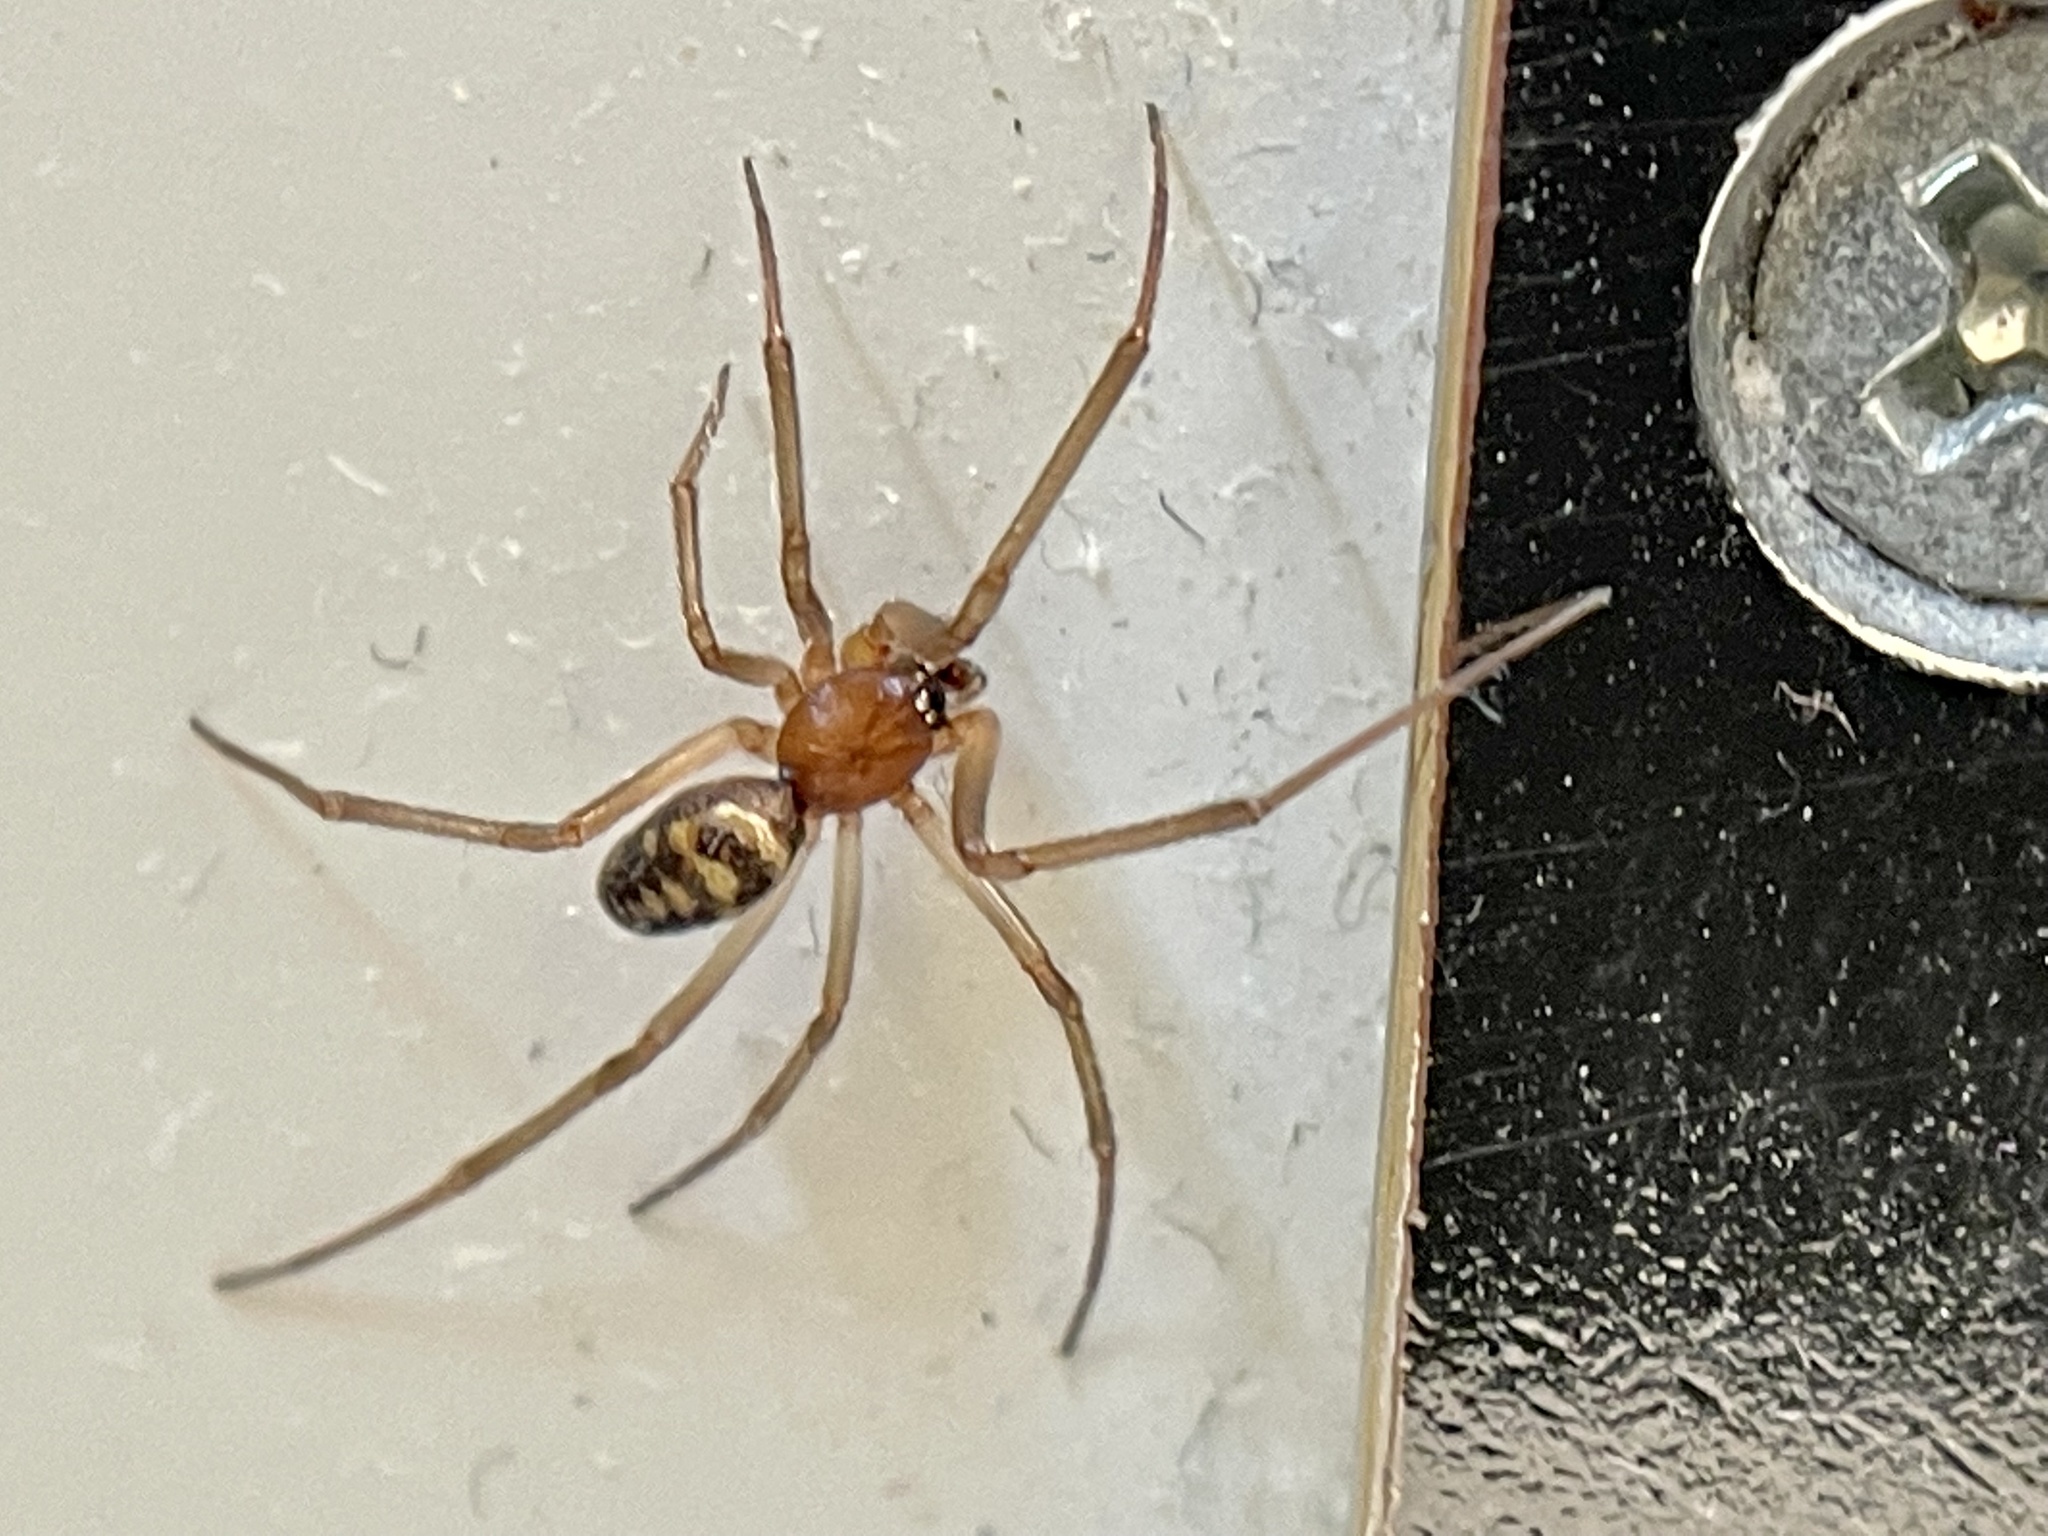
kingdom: Animalia
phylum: Arthropoda
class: Arachnida
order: Araneae
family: Theridiidae
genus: Steatoda
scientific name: Steatoda grossa
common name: False black widow
